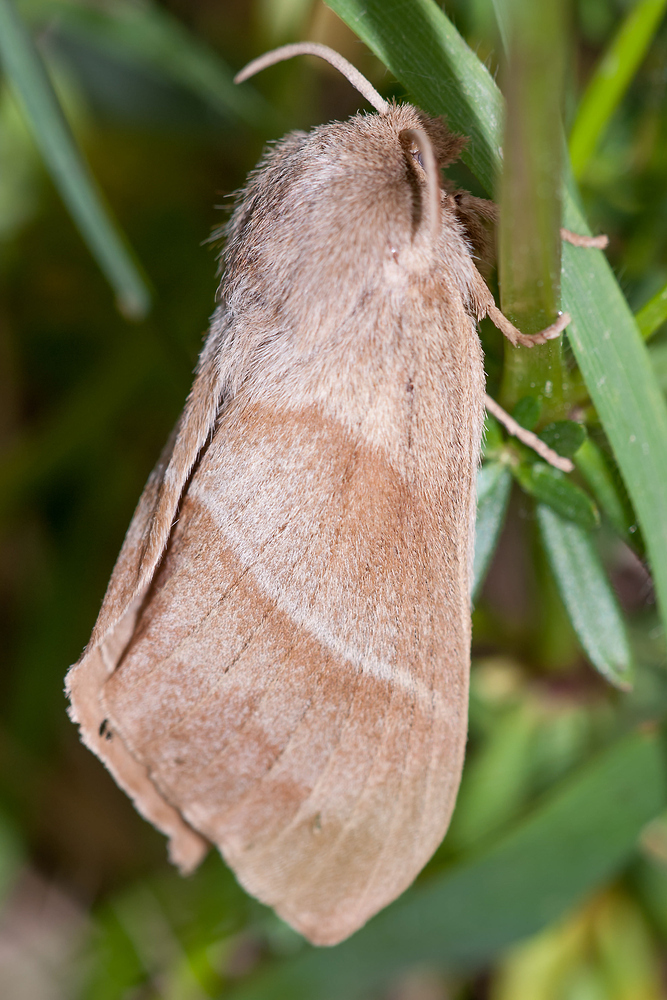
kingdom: Animalia
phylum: Arthropoda
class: Insecta
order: Lepidoptera
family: Lasiocampidae
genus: Macrothylacia
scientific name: Macrothylacia rubi
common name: Fox moth
